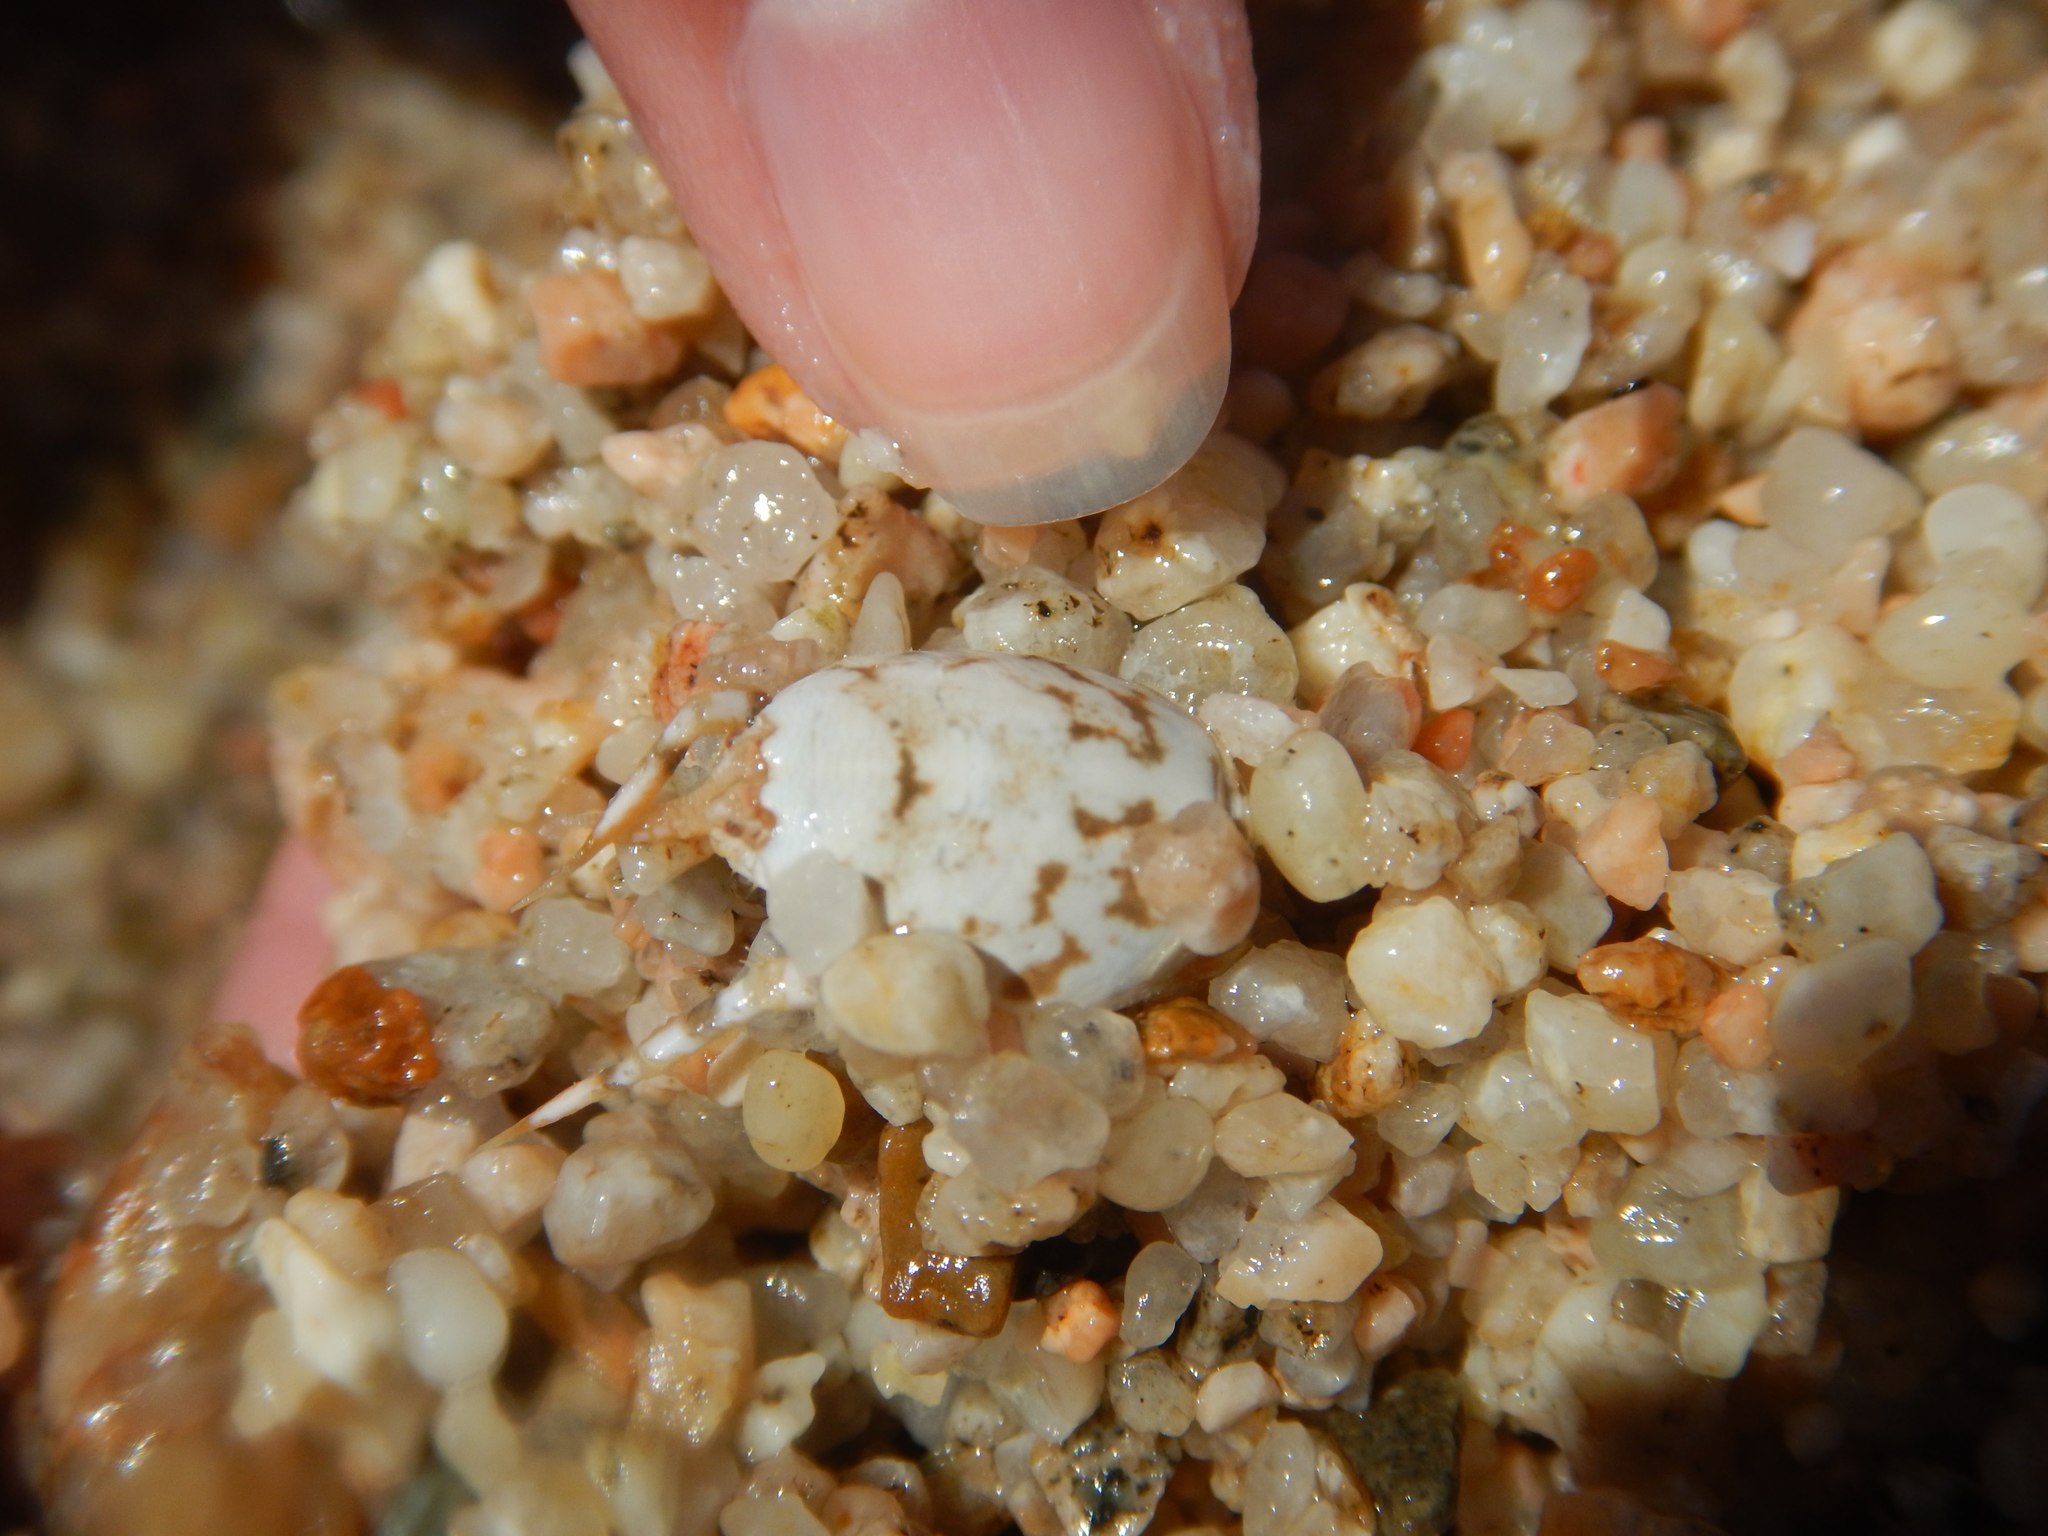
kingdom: Animalia
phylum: Arthropoda
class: Malacostraca
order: Decapoda
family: Hippidae
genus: Hippa
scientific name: Hippa marmorata
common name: Pacific mole crab
